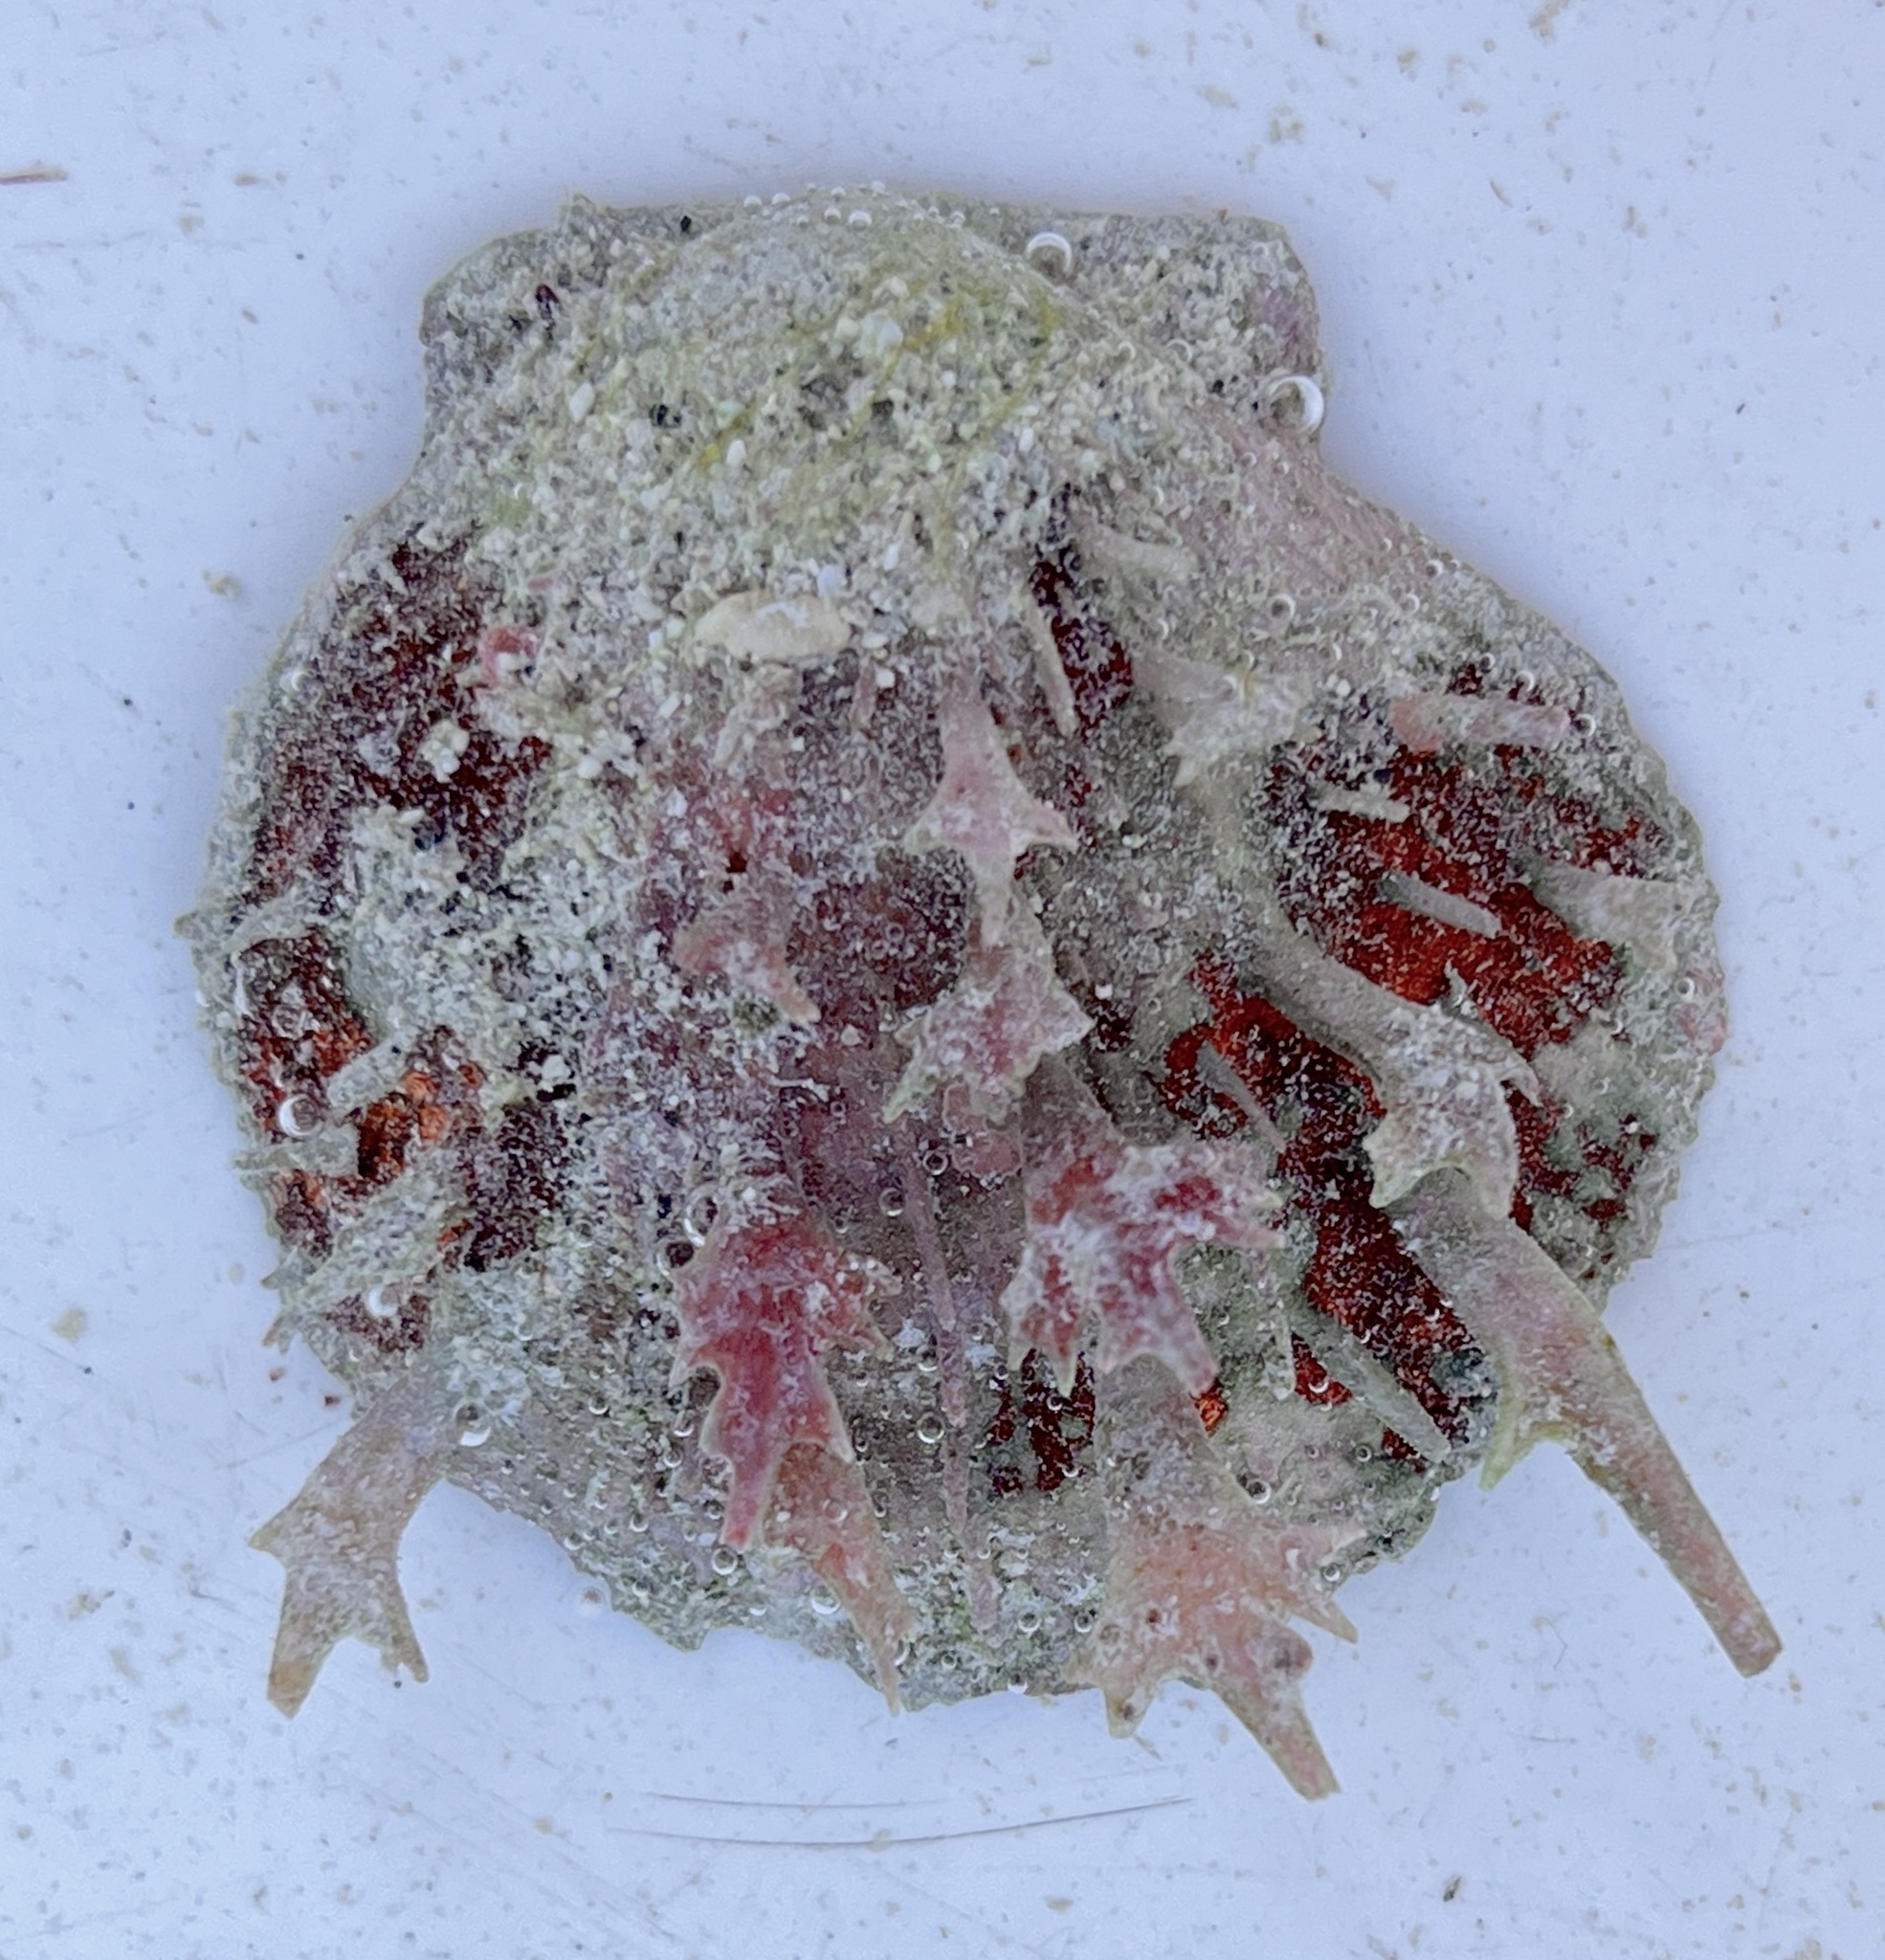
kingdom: Animalia
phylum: Mollusca
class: Bivalvia
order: Pectinida
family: Spondylidae
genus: Spondylus
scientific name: Spondylus tenuis
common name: Digitate thorny oyster
